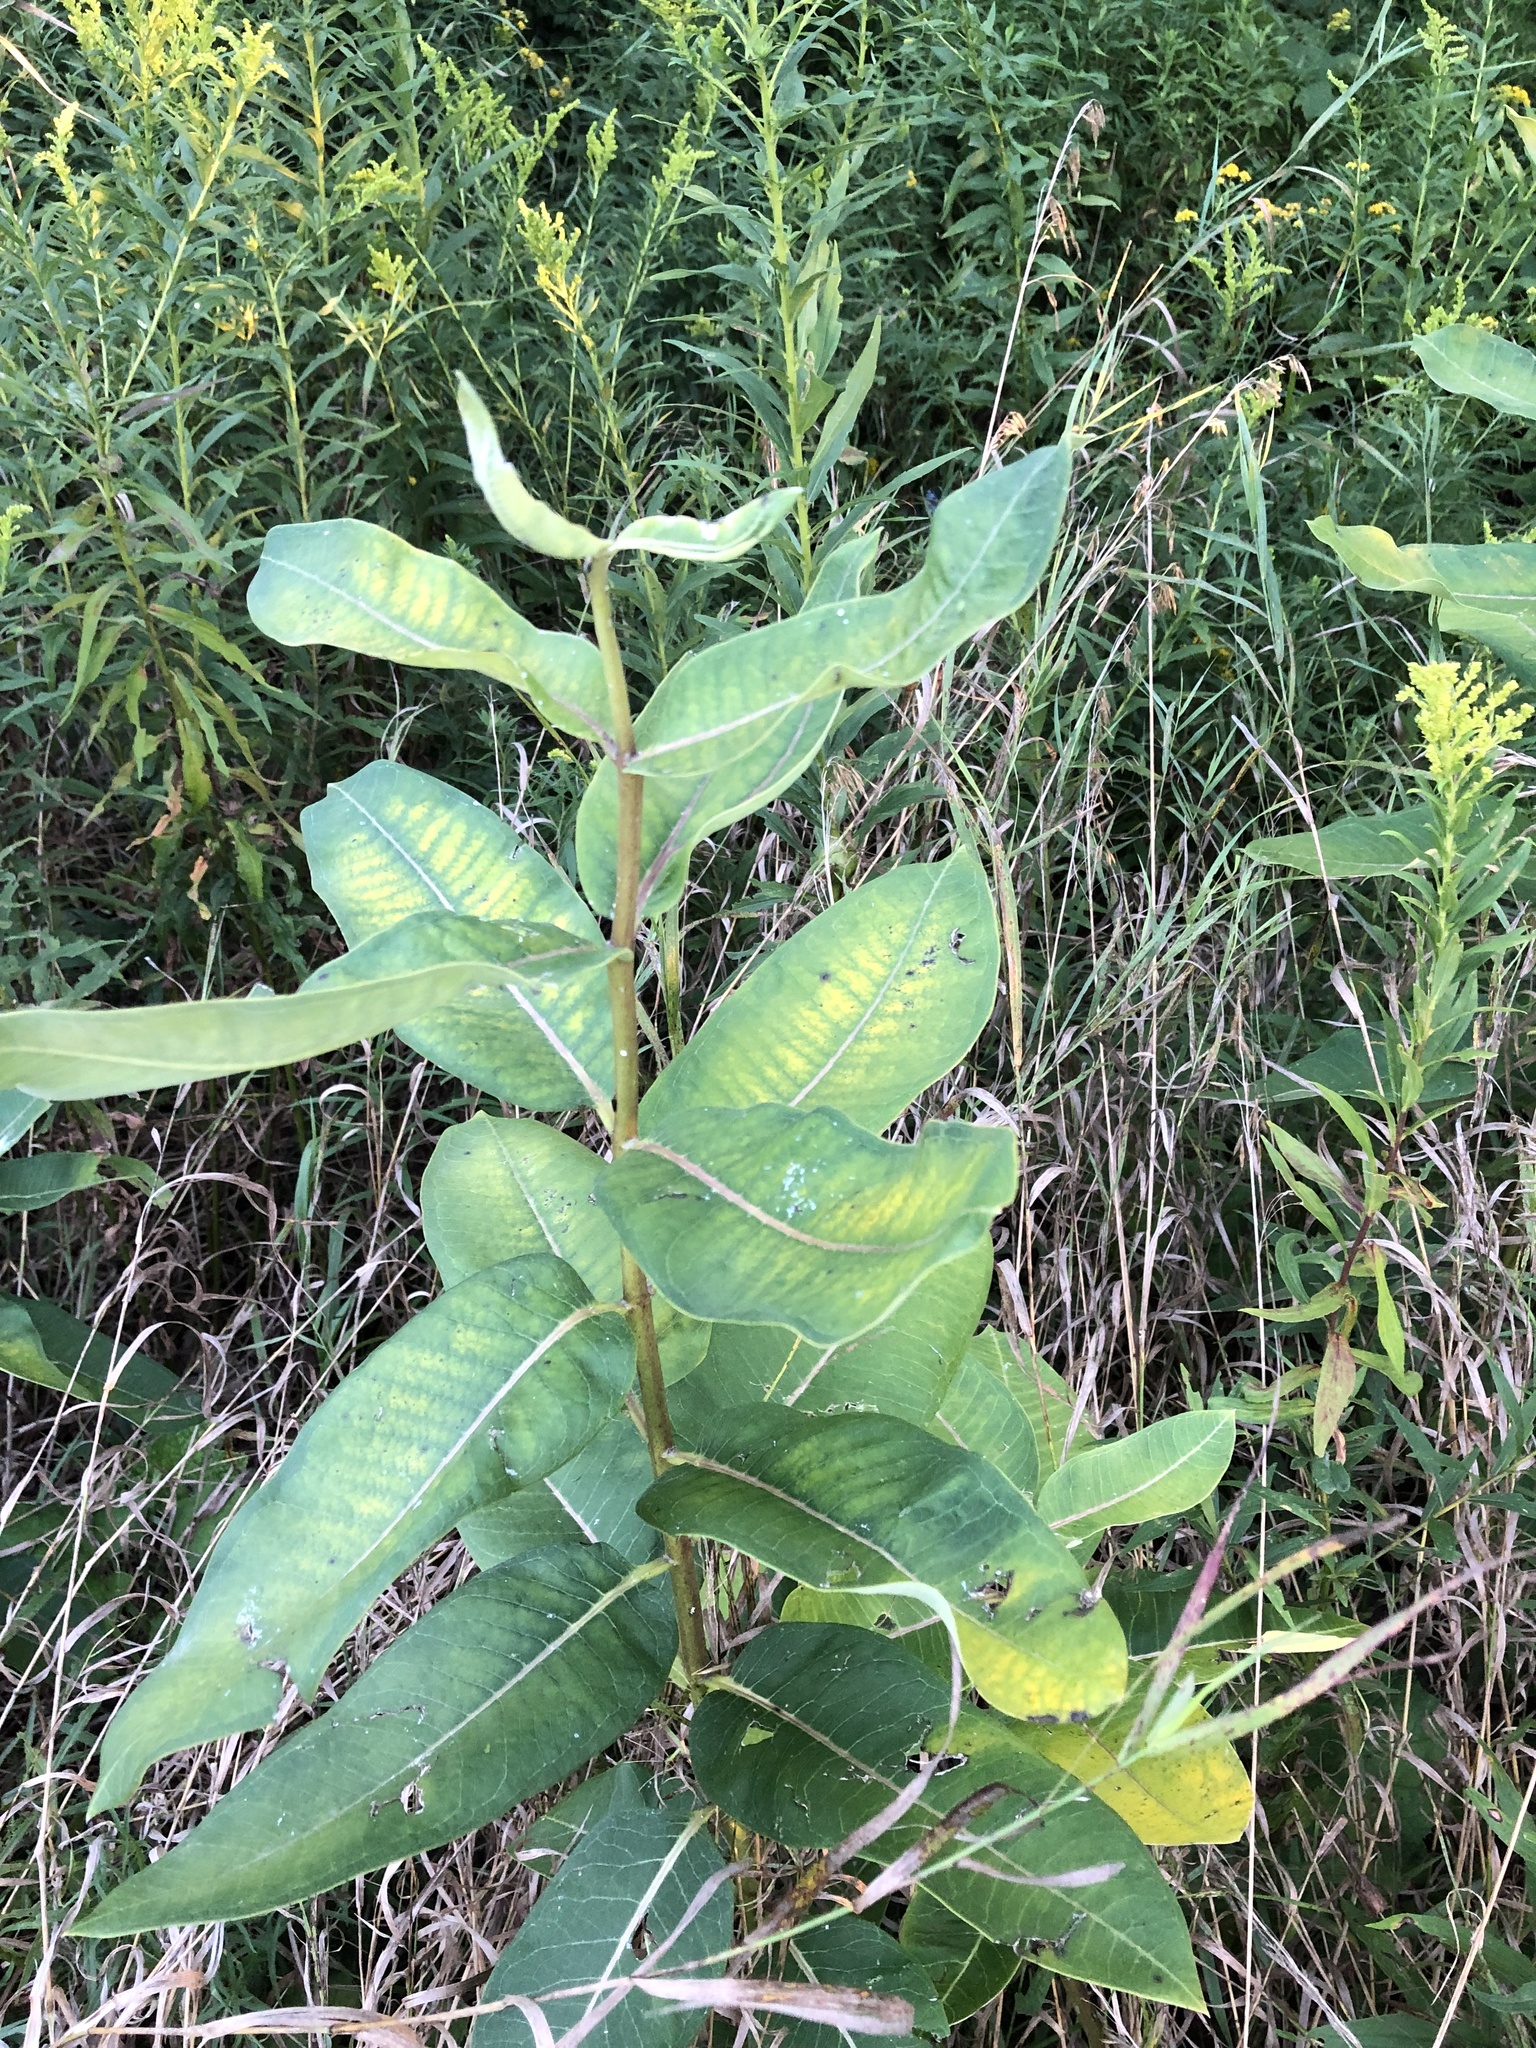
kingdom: Plantae
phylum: Tracheophyta
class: Magnoliopsida
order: Gentianales
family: Apocynaceae
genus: Asclepias
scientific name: Asclepias syriaca
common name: Common milkweed
